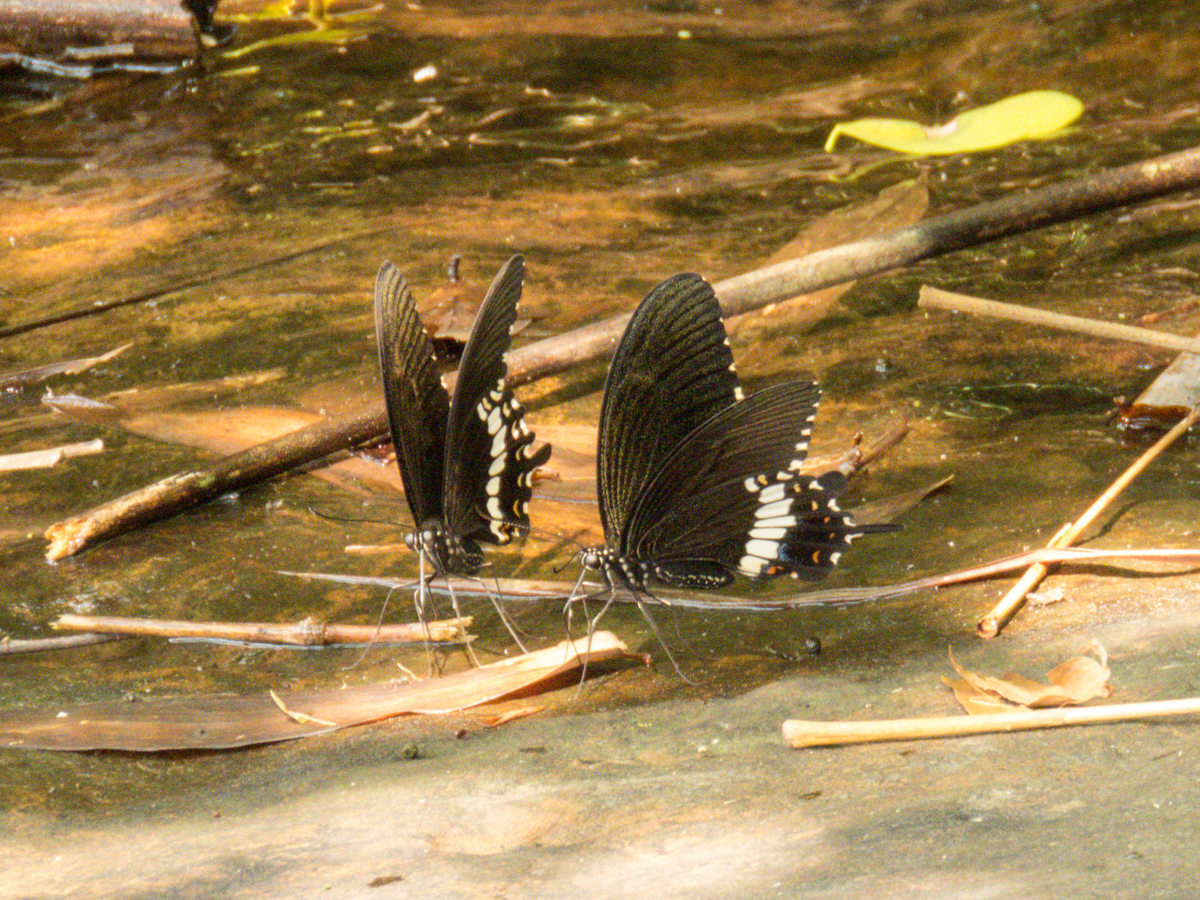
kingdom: Animalia
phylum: Arthropoda
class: Insecta
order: Lepidoptera
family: Papilionidae
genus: Papilio
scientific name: Papilio polytes
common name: Common mormon
